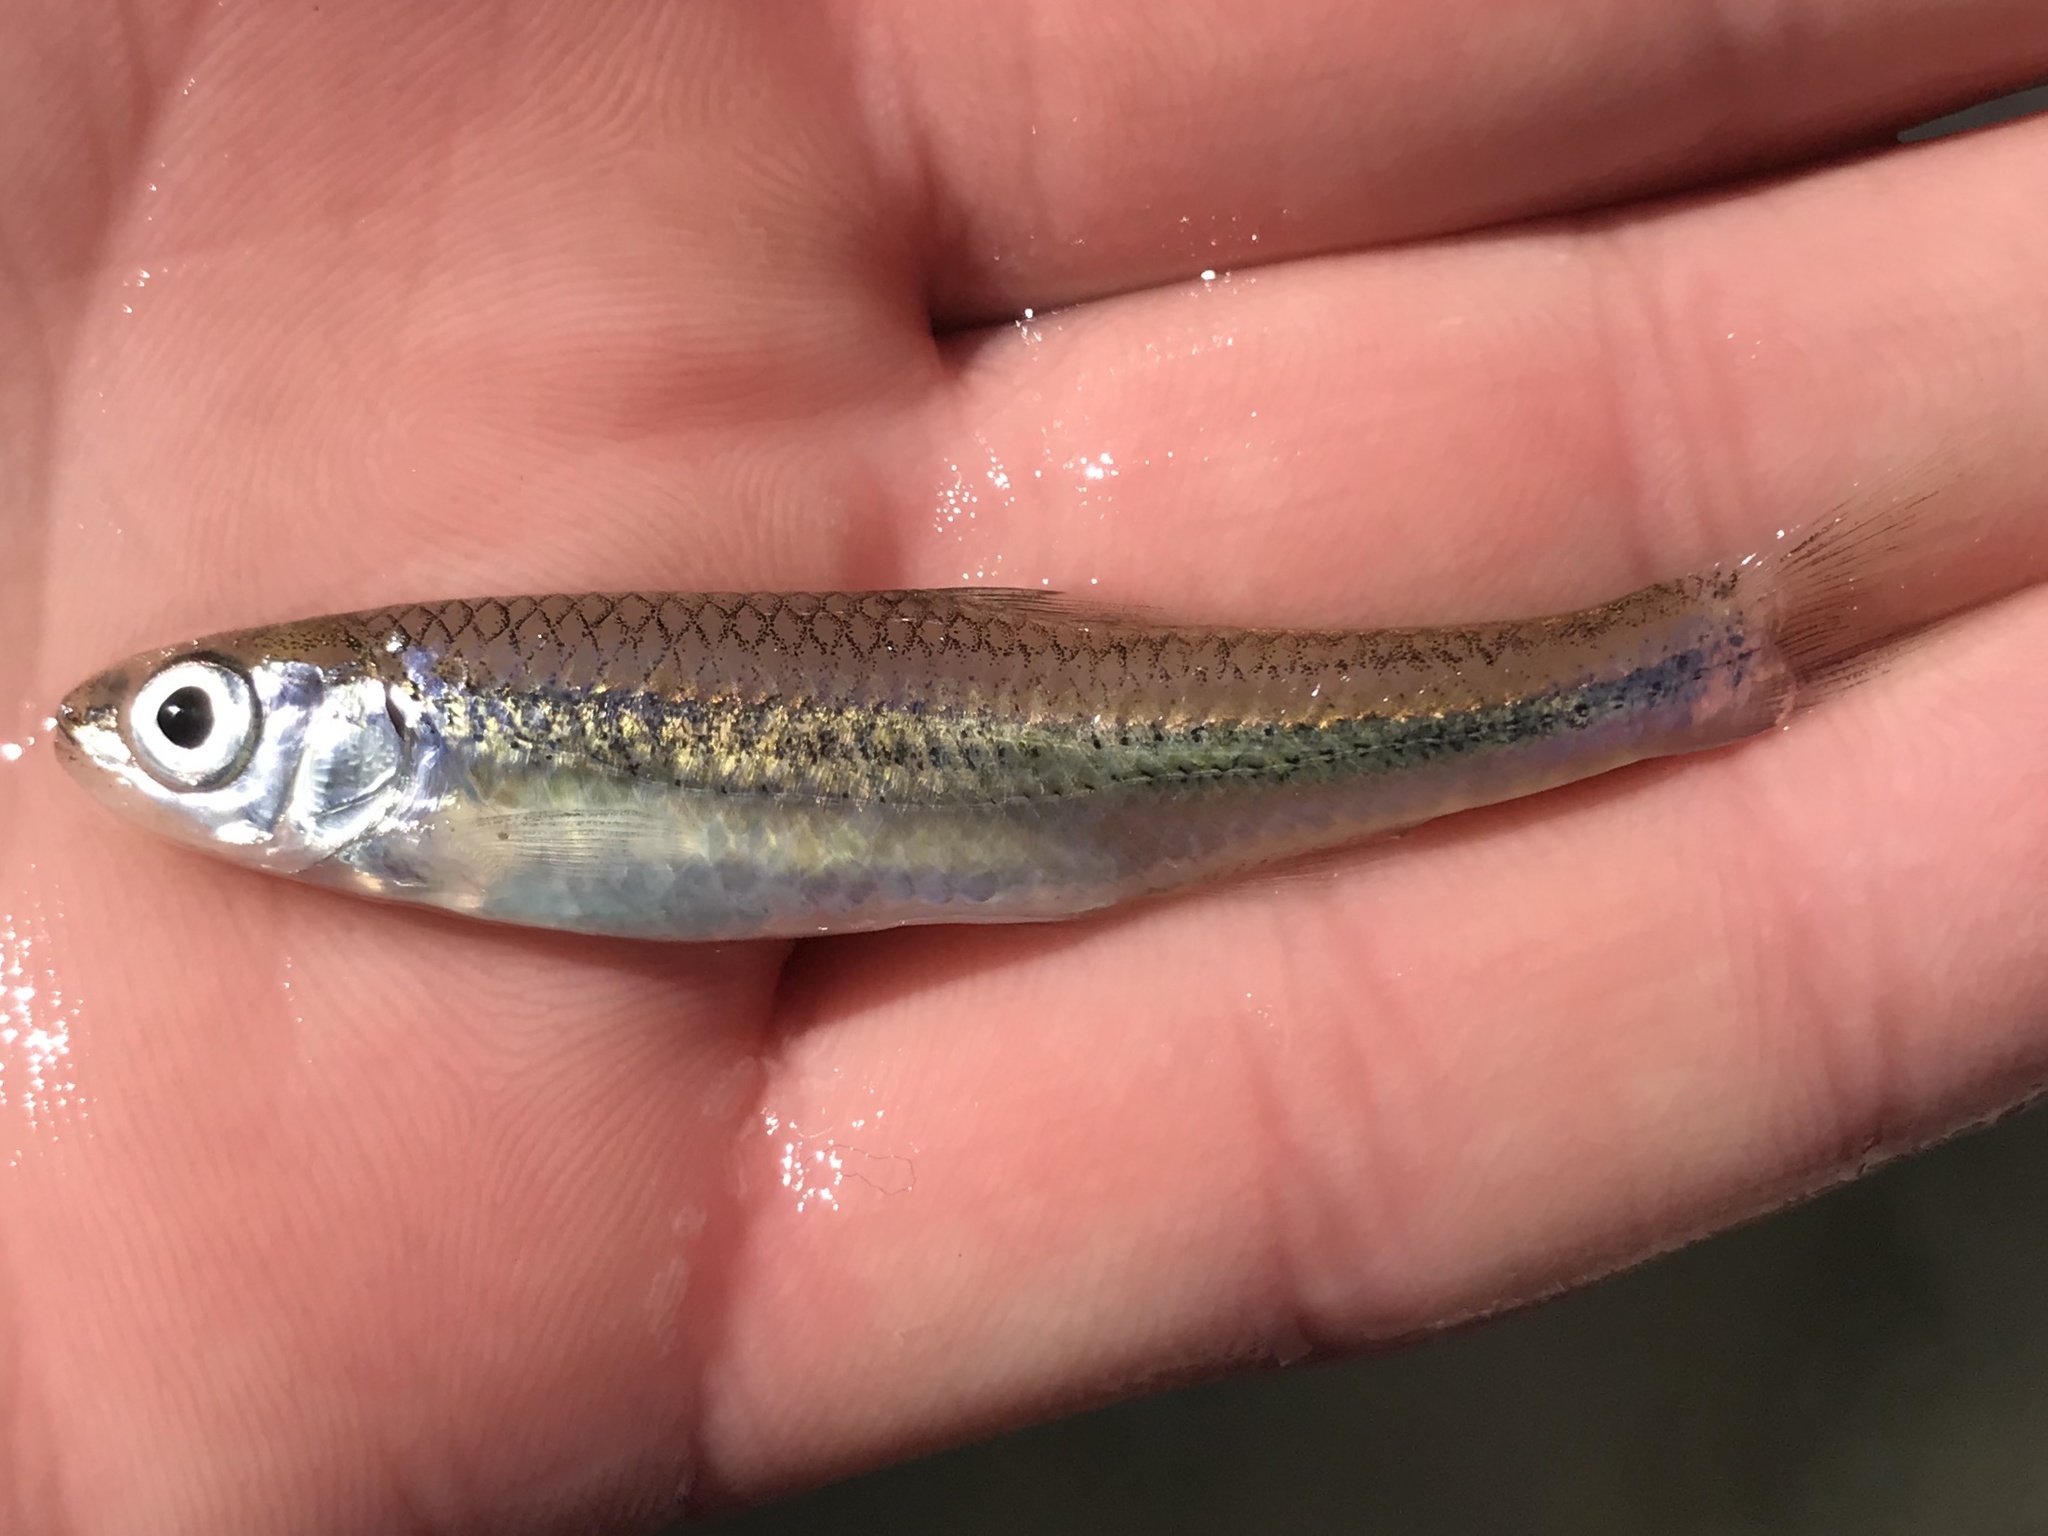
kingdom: Animalia
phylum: Chordata
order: Cypriniformes
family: Cyprinidae
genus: Notropis
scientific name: Notropis amabilis
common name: Texas shiner
